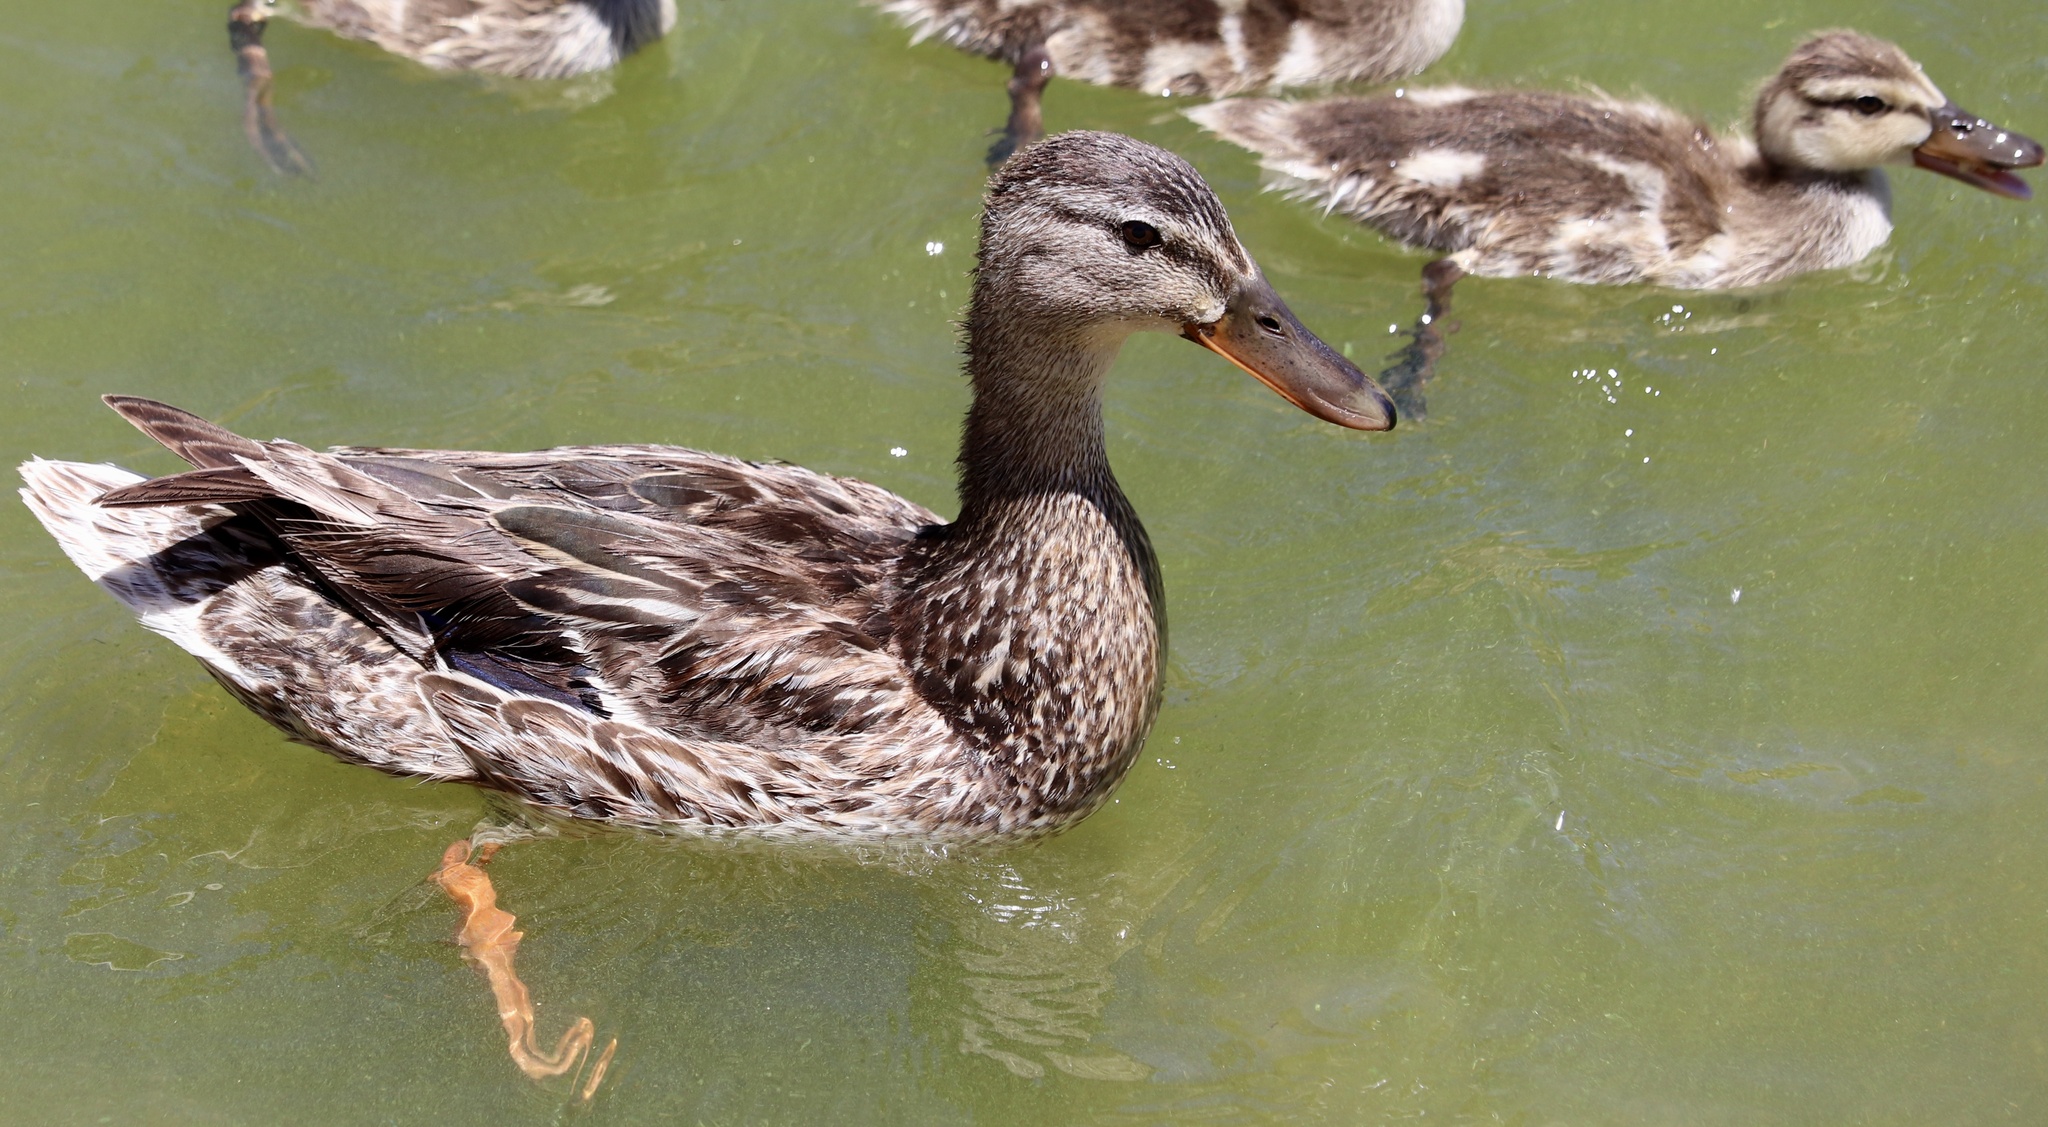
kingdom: Animalia
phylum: Chordata
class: Aves
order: Anseriformes
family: Anatidae
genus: Anas
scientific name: Anas platyrhynchos
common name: Mallard
